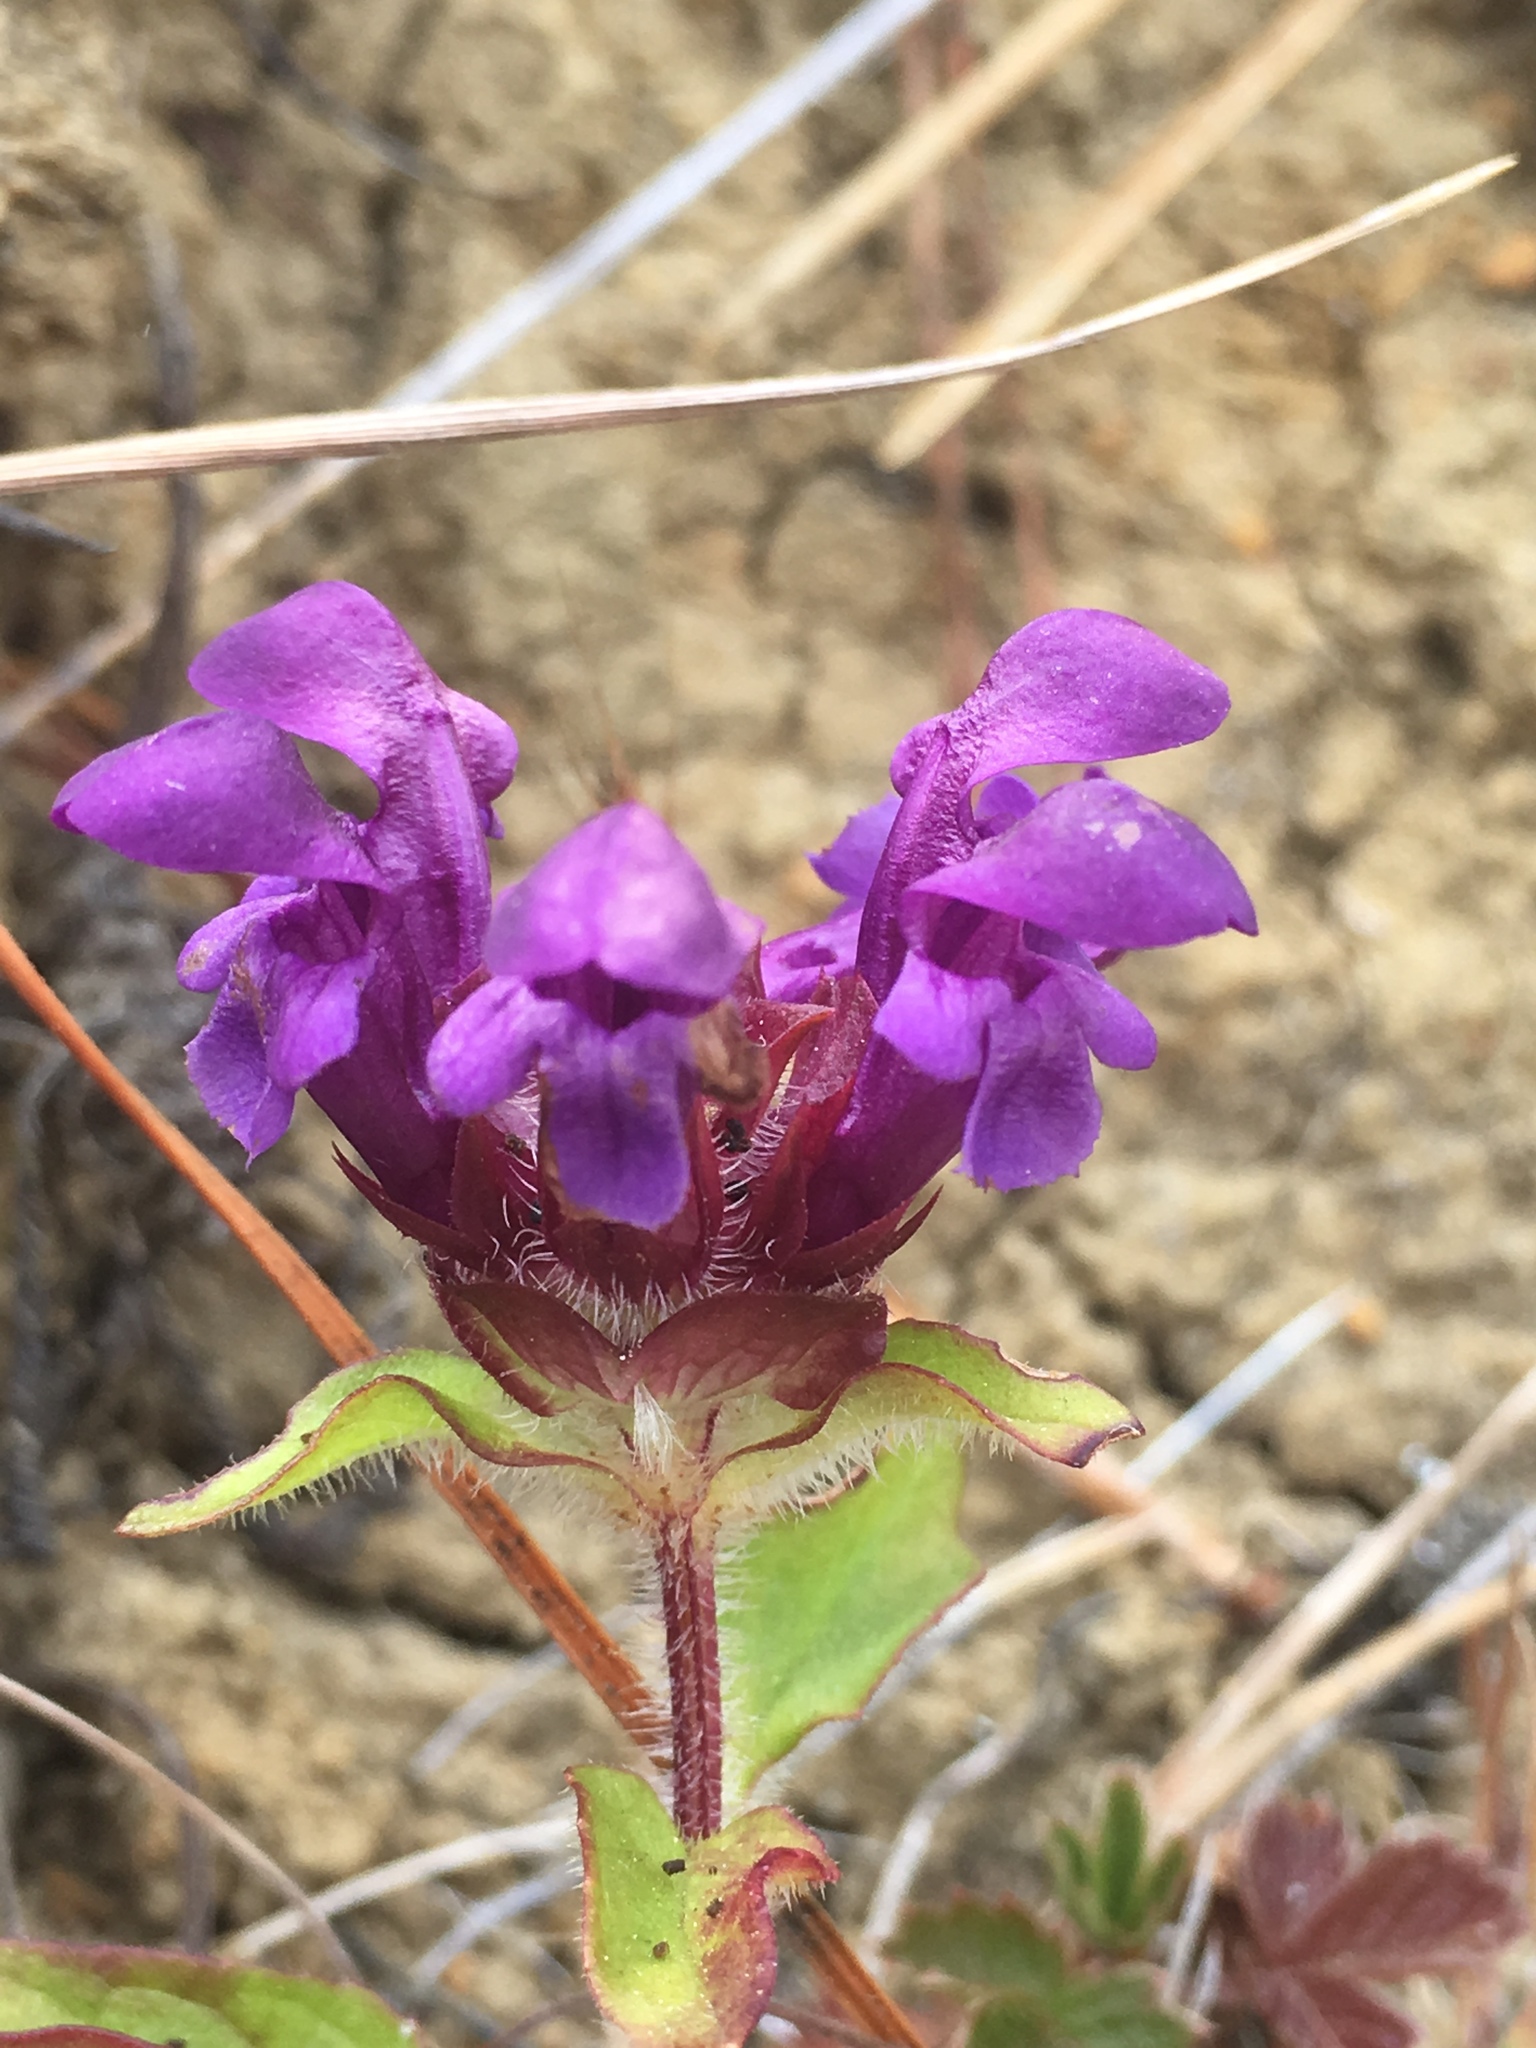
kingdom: Plantae
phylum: Tracheophyta
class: Magnoliopsida
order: Lamiales
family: Lamiaceae
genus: Prunella
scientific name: Prunella vulgaris
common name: Heal-all
